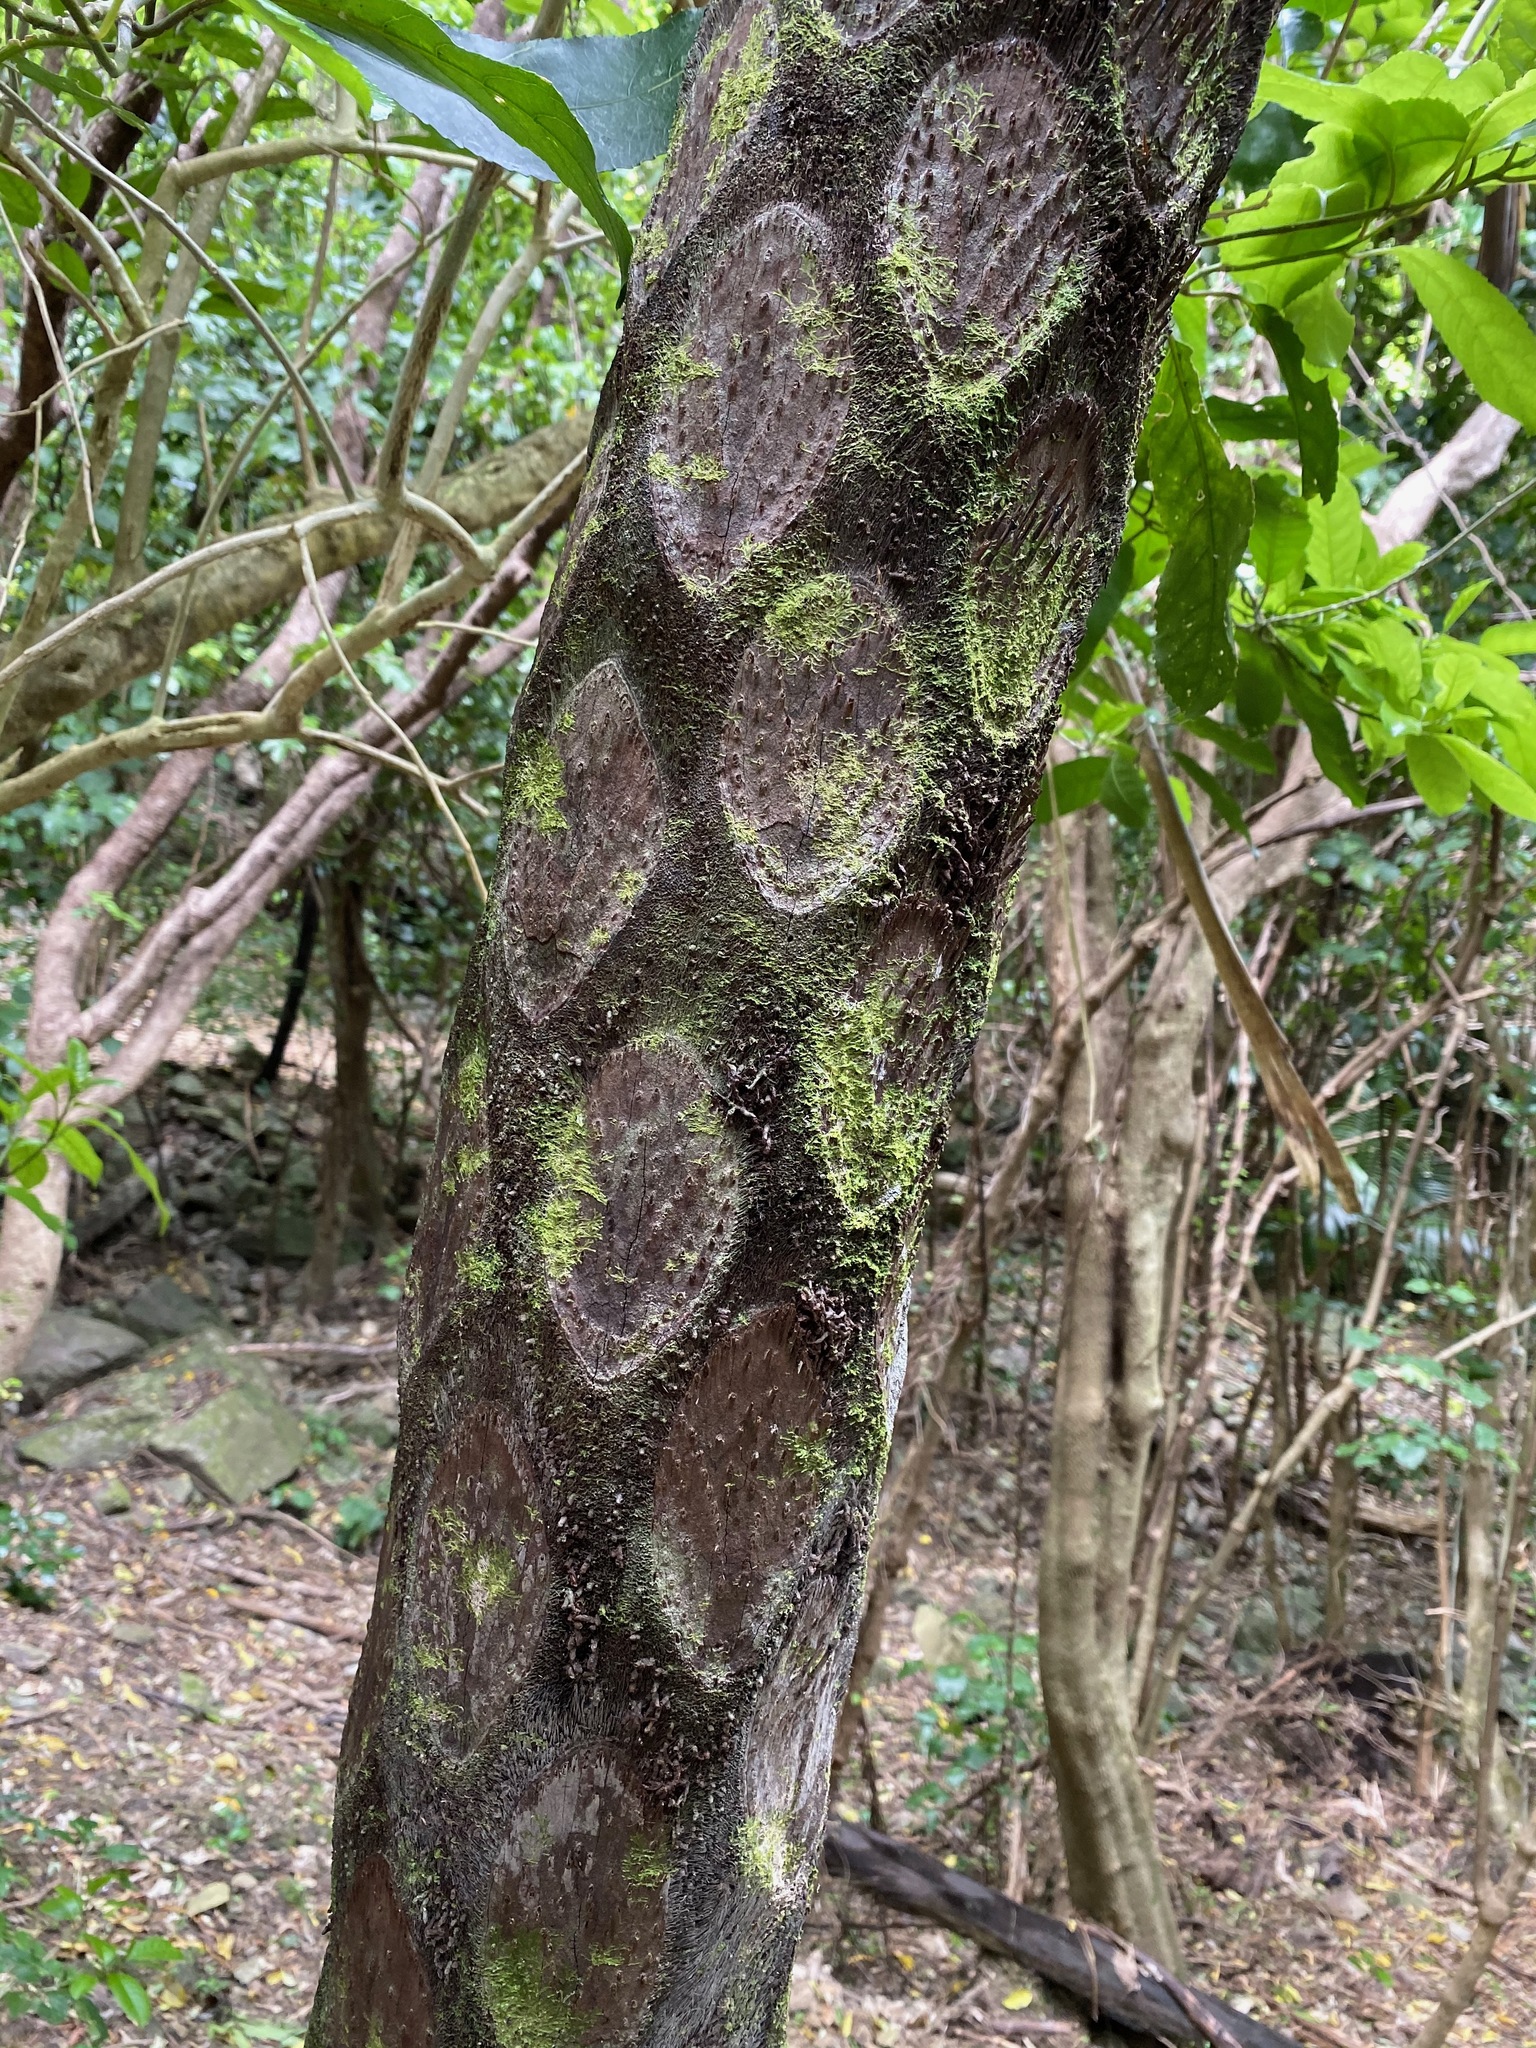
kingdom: Plantae
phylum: Tracheophyta
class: Polypodiopsida
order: Cyatheales
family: Cyatheaceae
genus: Sphaeropteris
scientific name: Sphaeropteris medullaris
